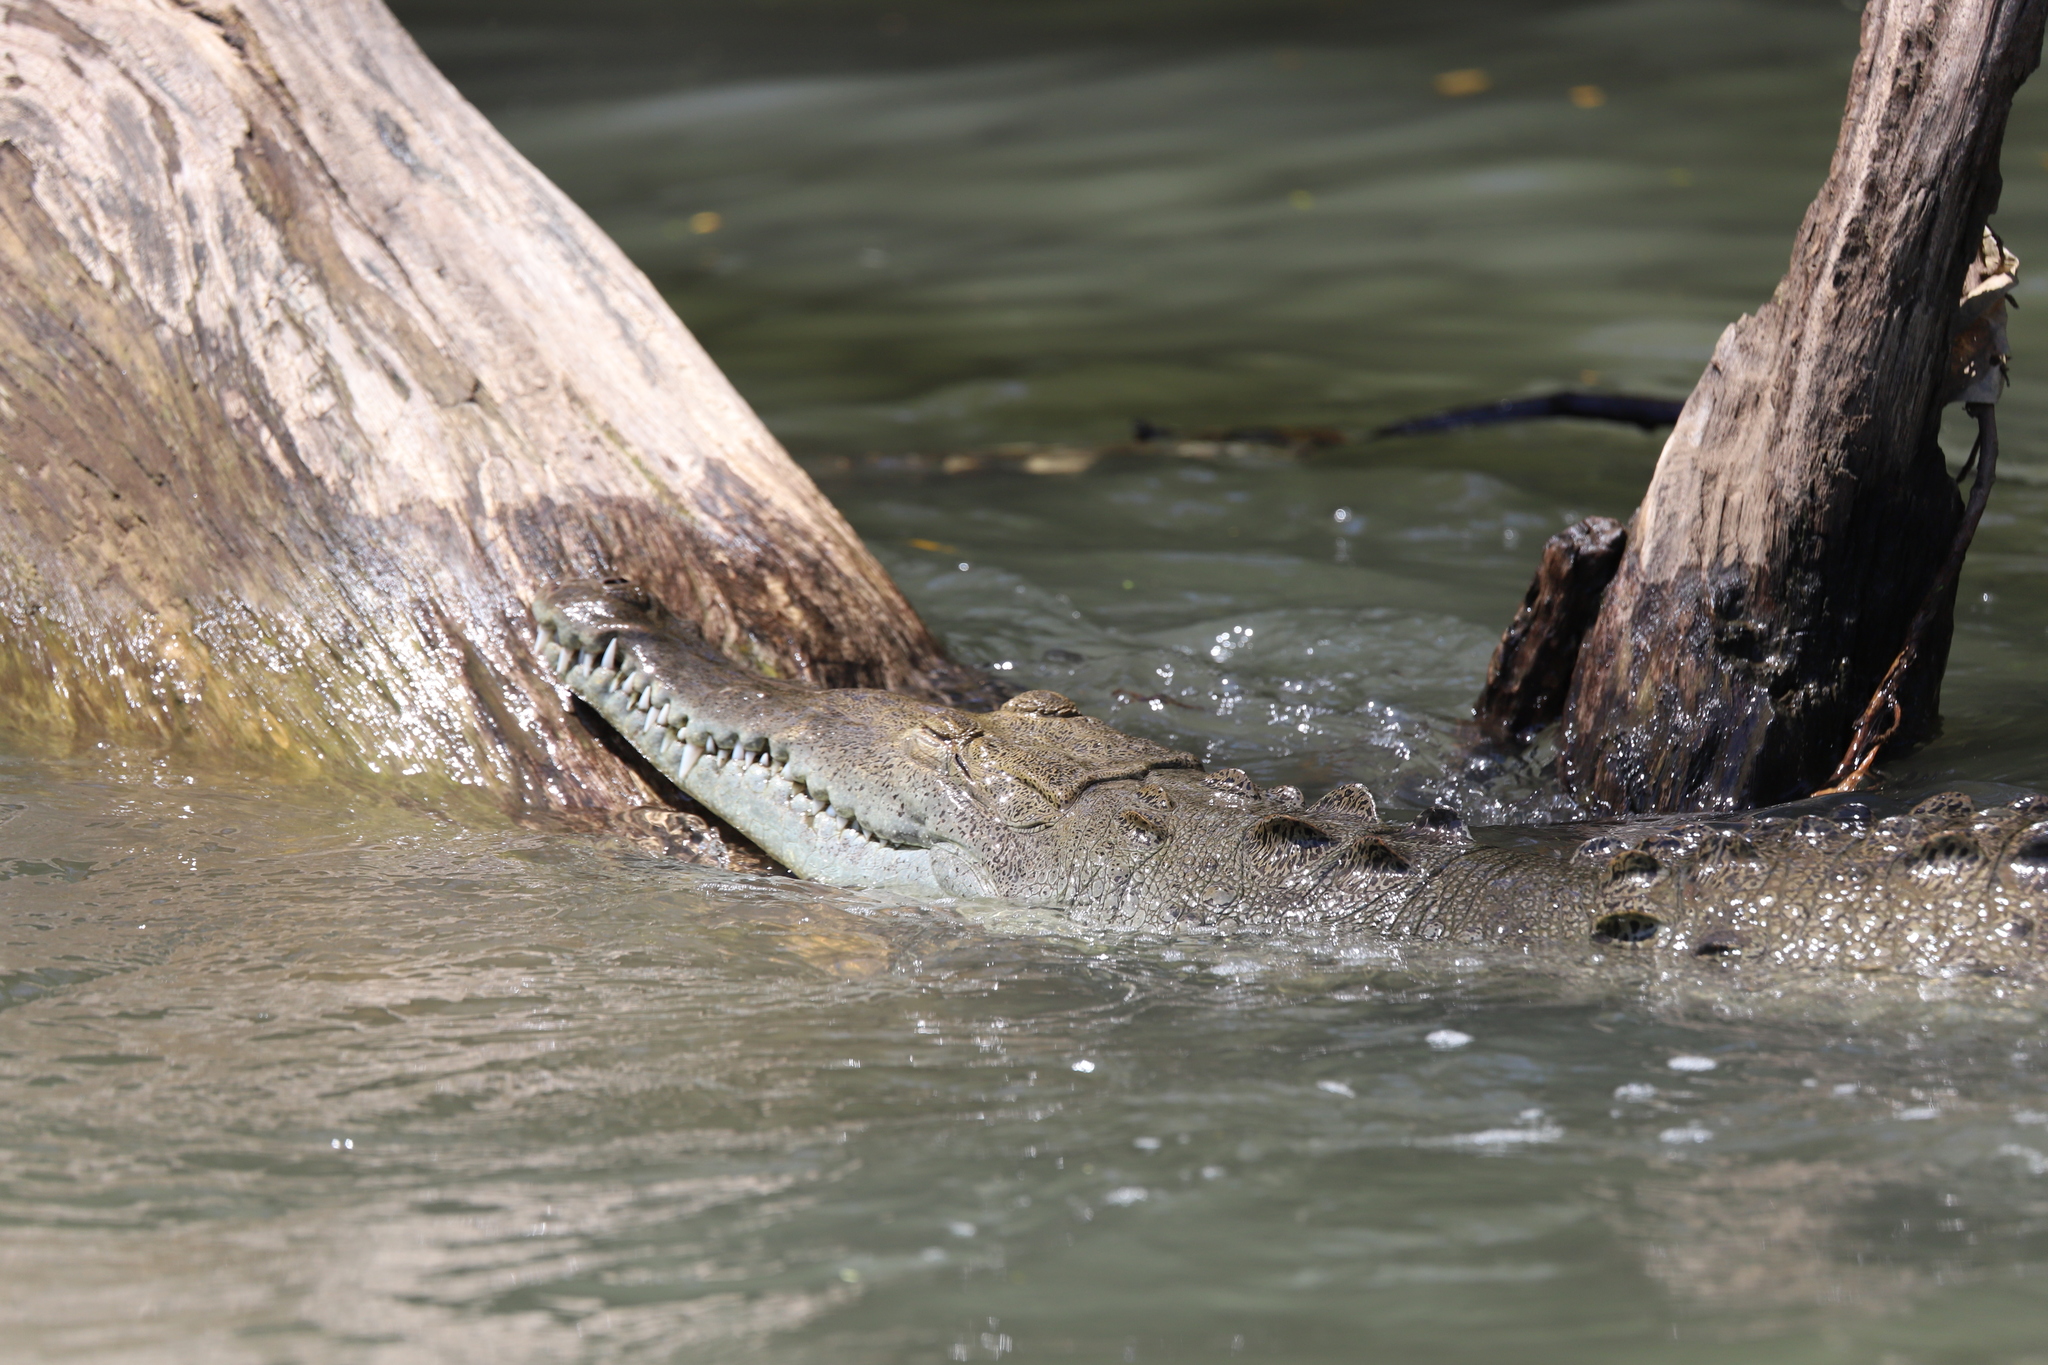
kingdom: Animalia
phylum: Chordata
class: Crocodylia
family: Crocodylidae
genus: Crocodylus
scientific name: Crocodylus acutus
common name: American crocodile
